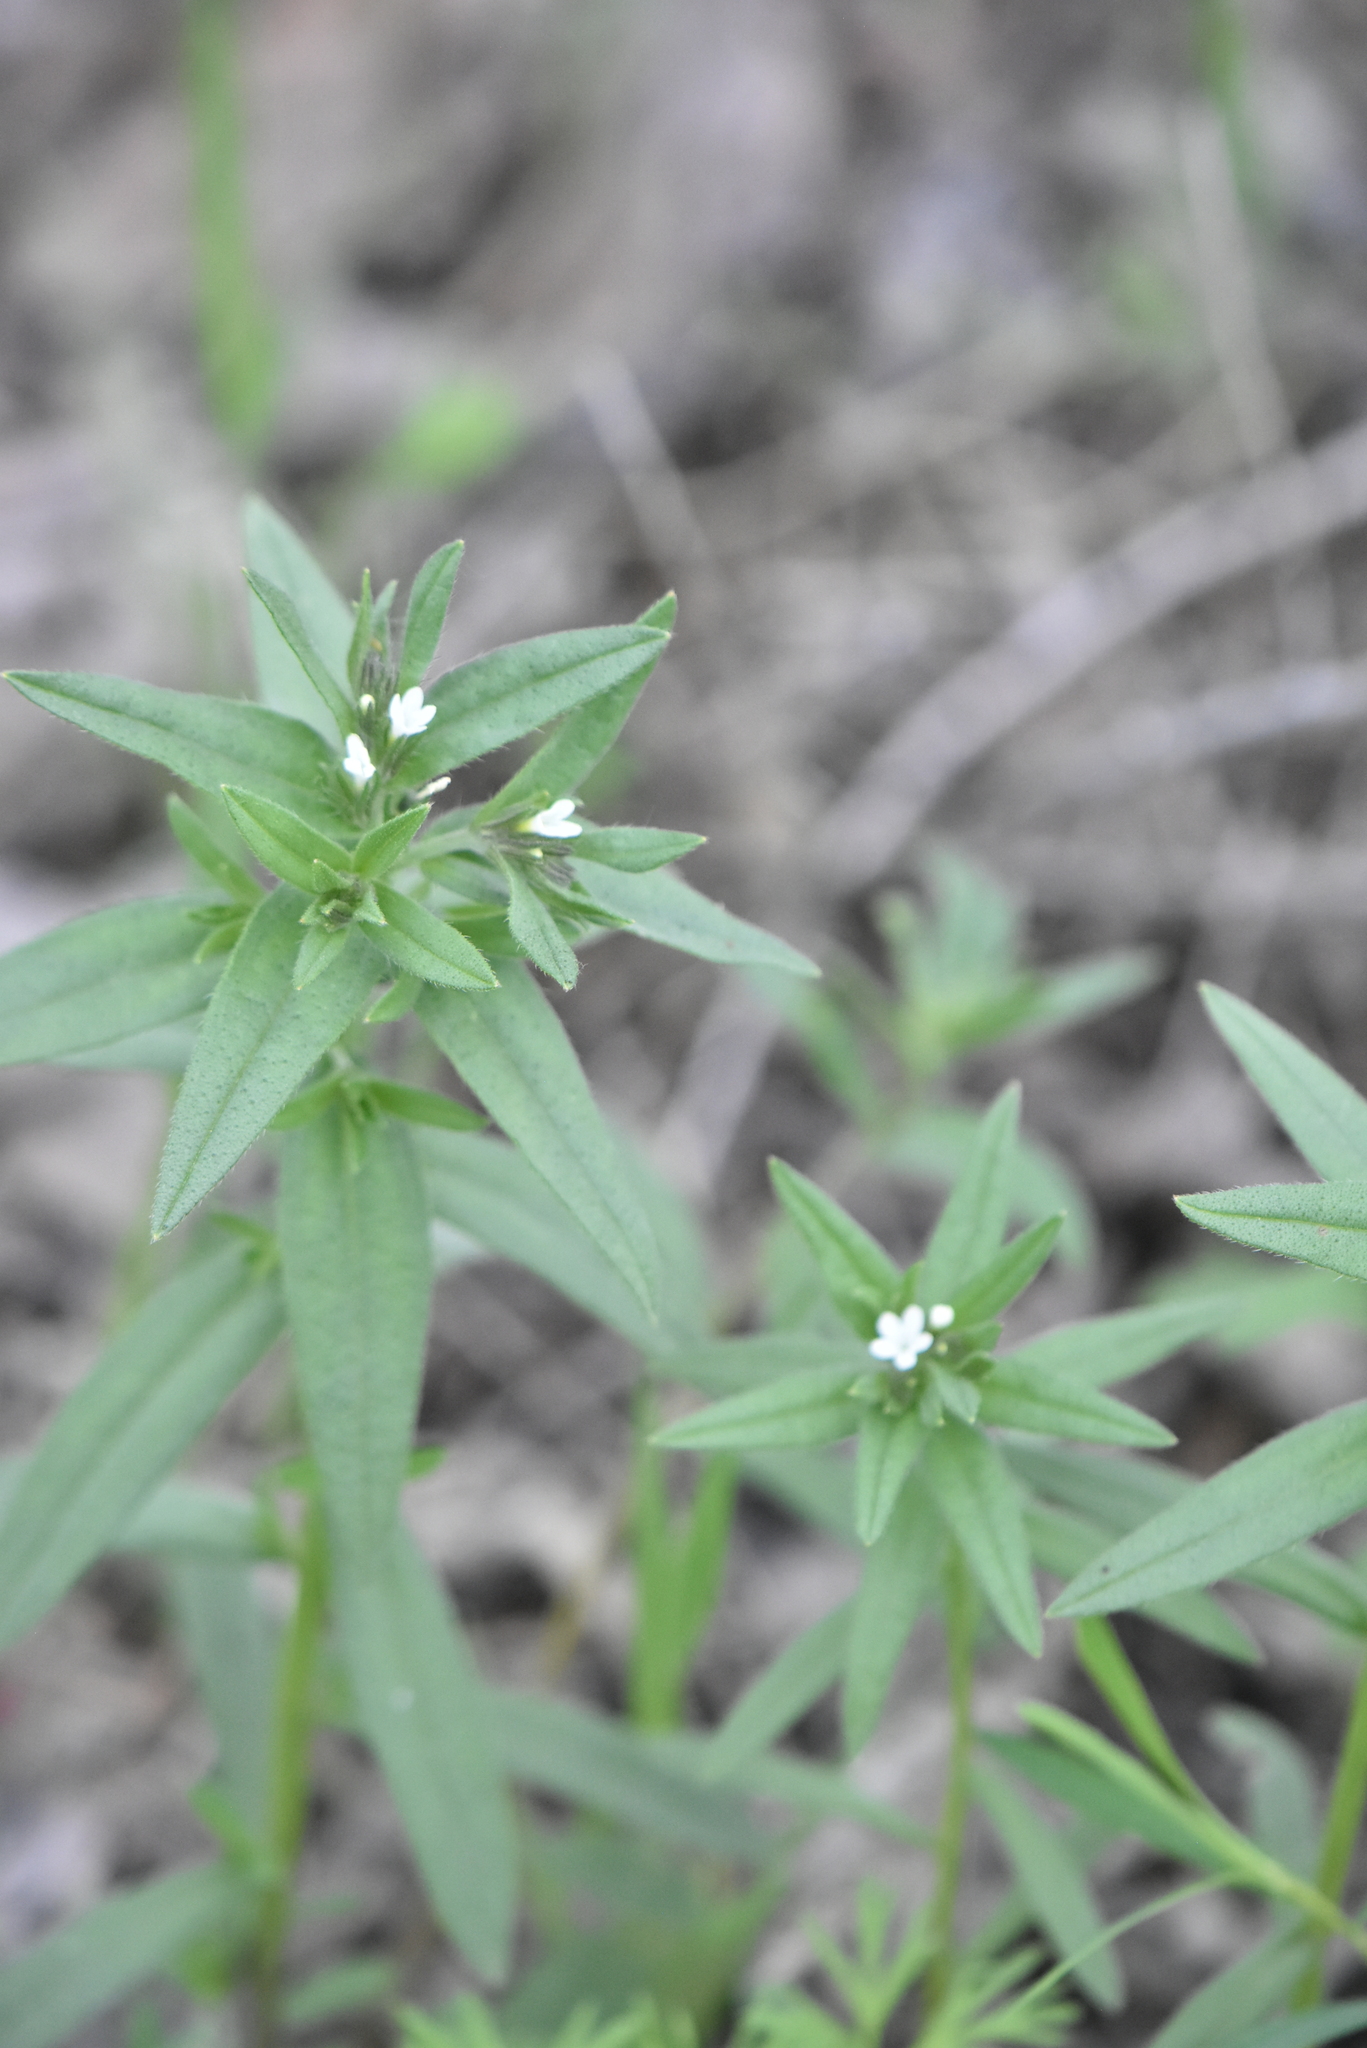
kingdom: Plantae
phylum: Tracheophyta
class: Magnoliopsida
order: Boraginales
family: Boraginaceae
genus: Buglossoides
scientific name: Buglossoides arvensis
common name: Corn gromwell
